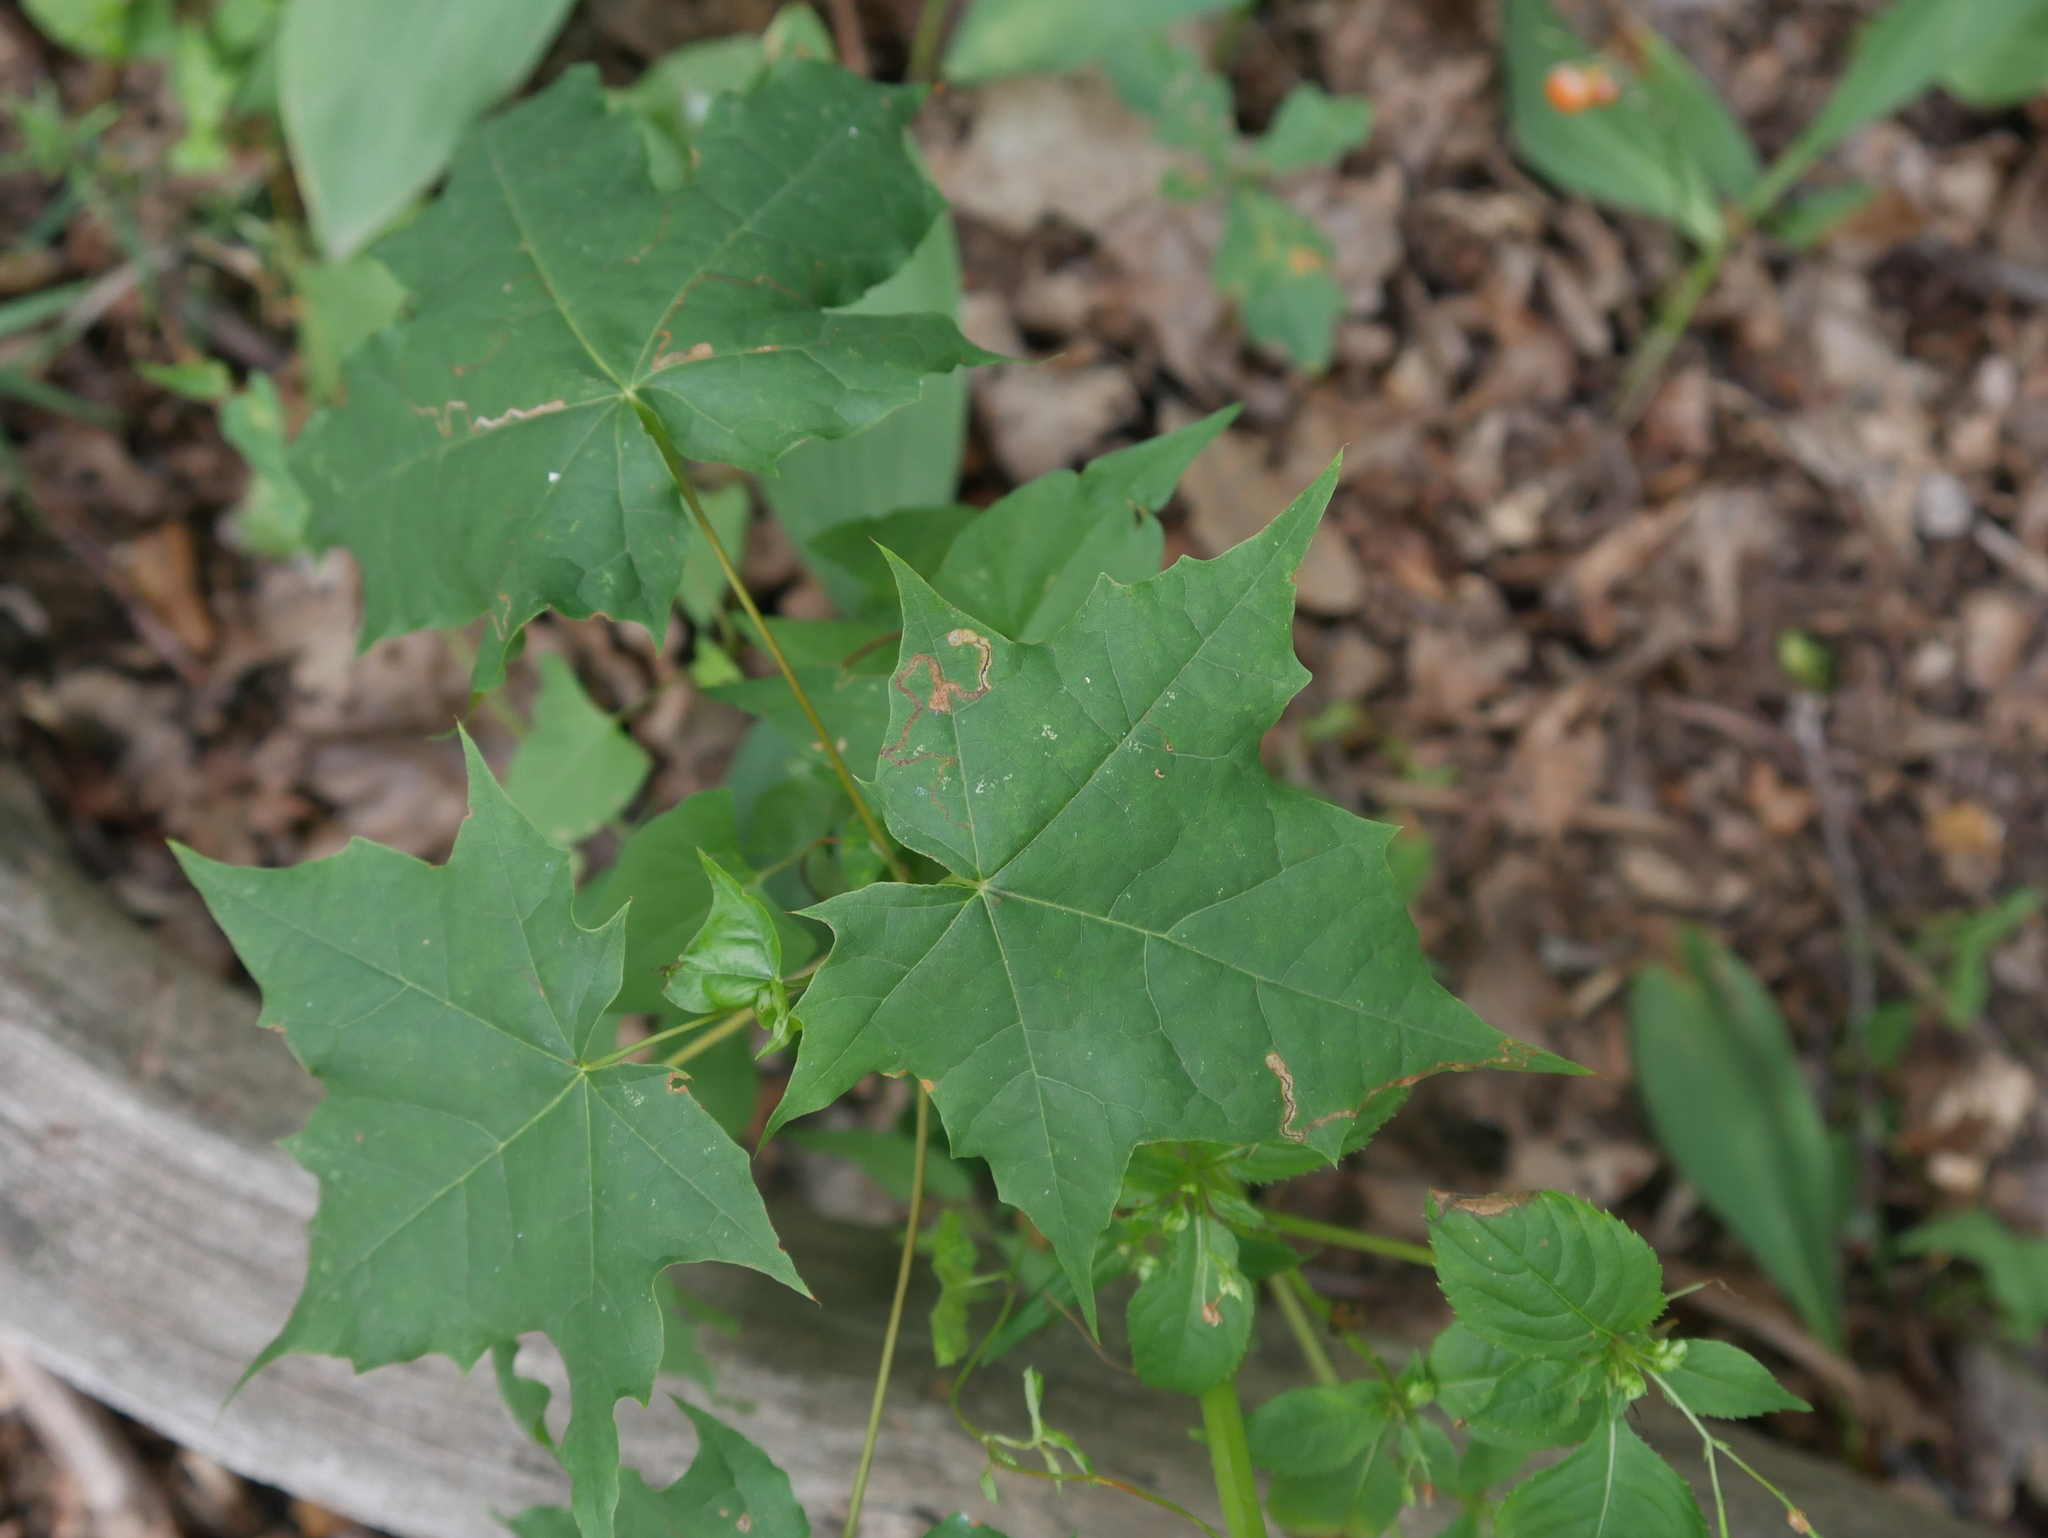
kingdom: Plantae
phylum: Tracheophyta
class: Magnoliopsida
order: Sapindales
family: Sapindaceae
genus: Acer
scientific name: Acer platanoides
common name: Norway maple
